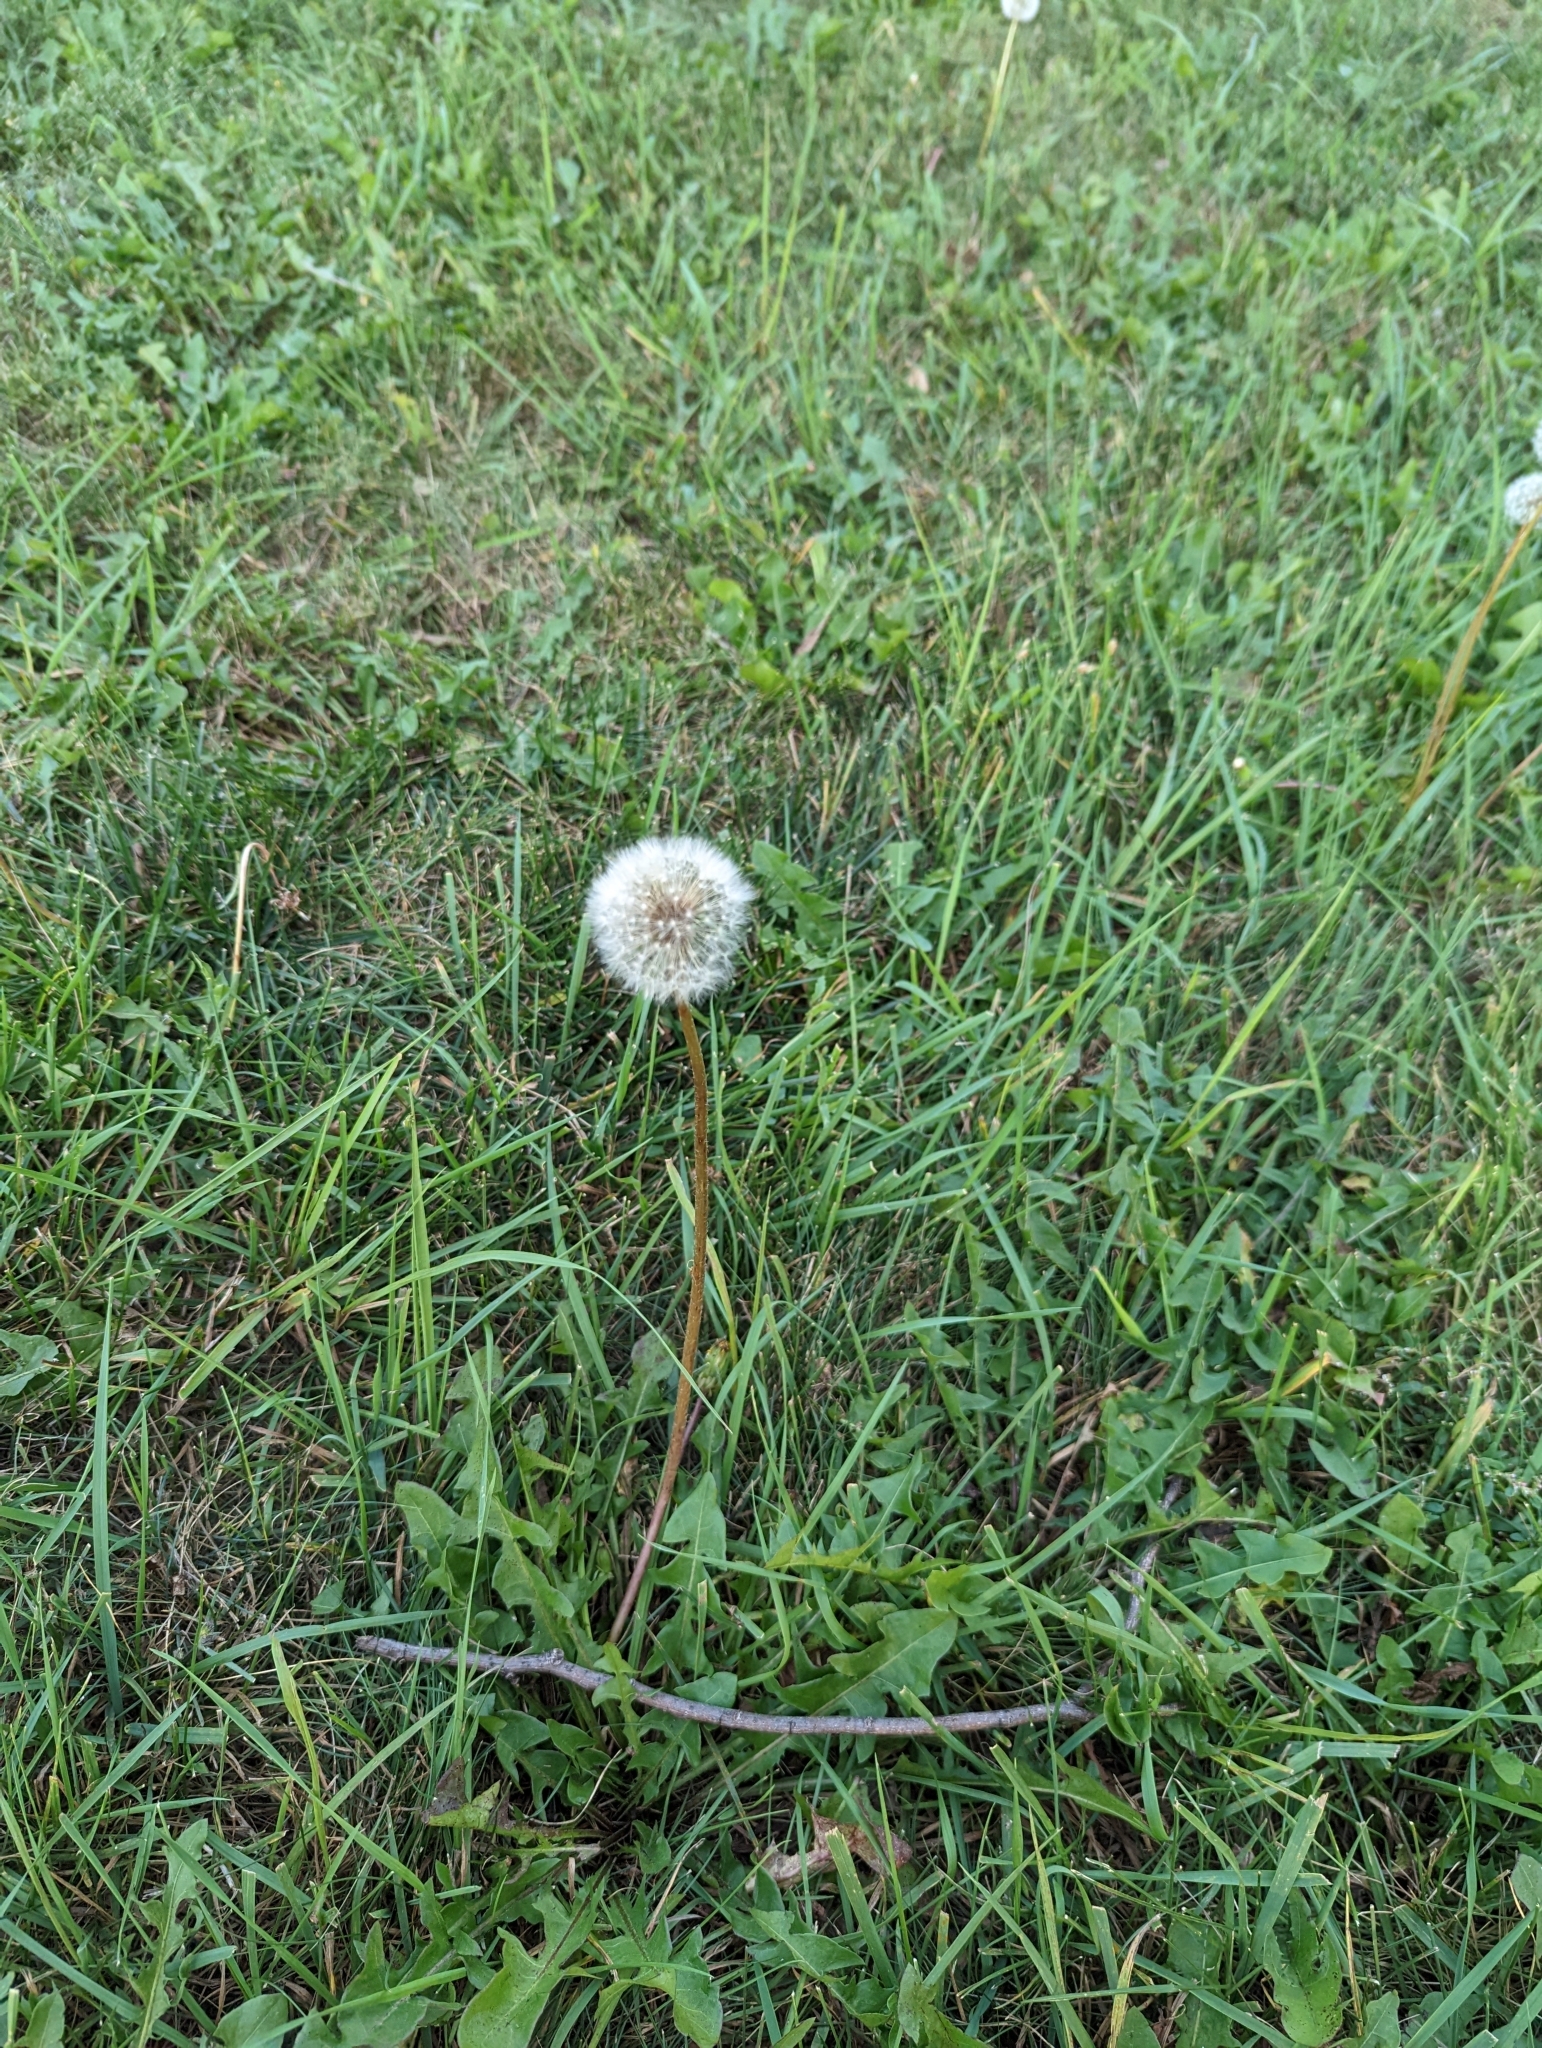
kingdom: Plantae
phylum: Tracheophyta
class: Magnoliopsida
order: Asterales
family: Asteraceae
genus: Taraxacum
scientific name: Taraxacum officinale
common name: Common dandelion
